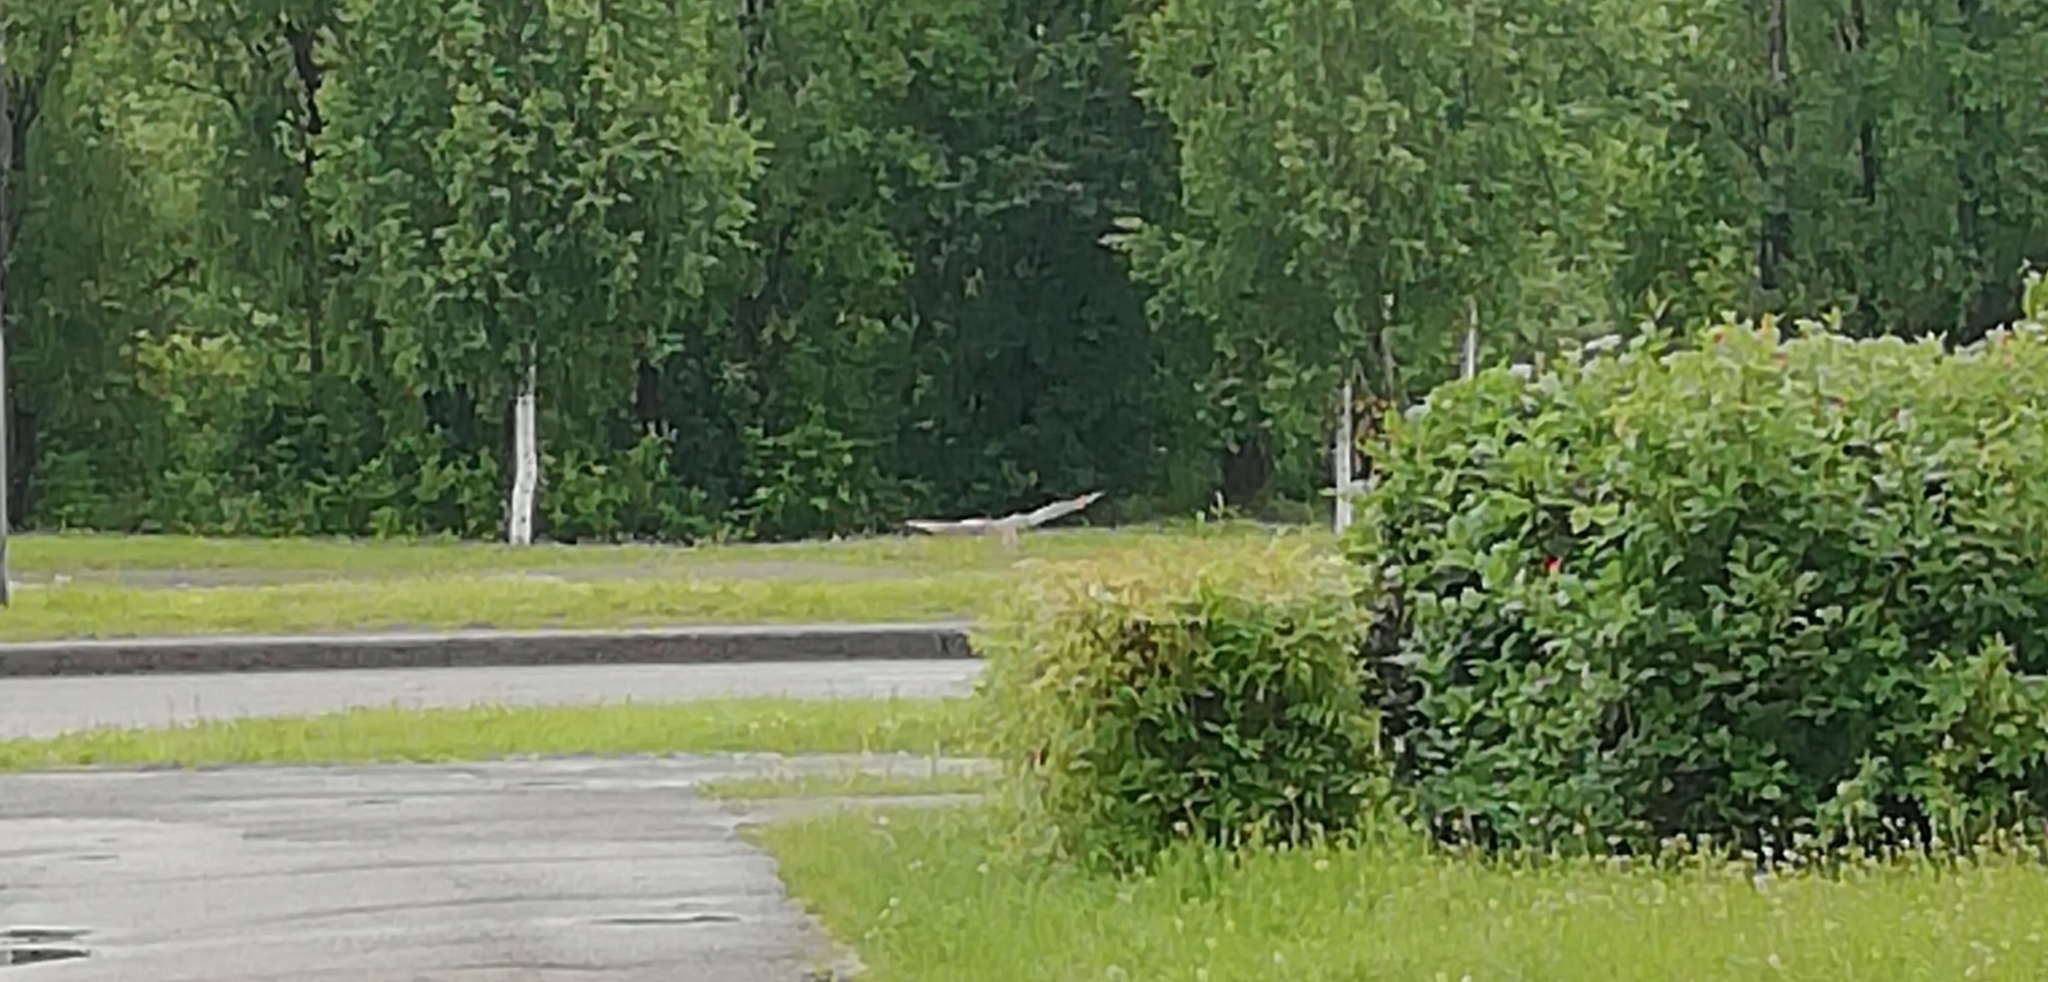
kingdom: Animalia
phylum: Chordata
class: Aves
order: Accipitriformes
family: Accipitridae
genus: Milvus
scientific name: Milvus migrans
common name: Black kite
